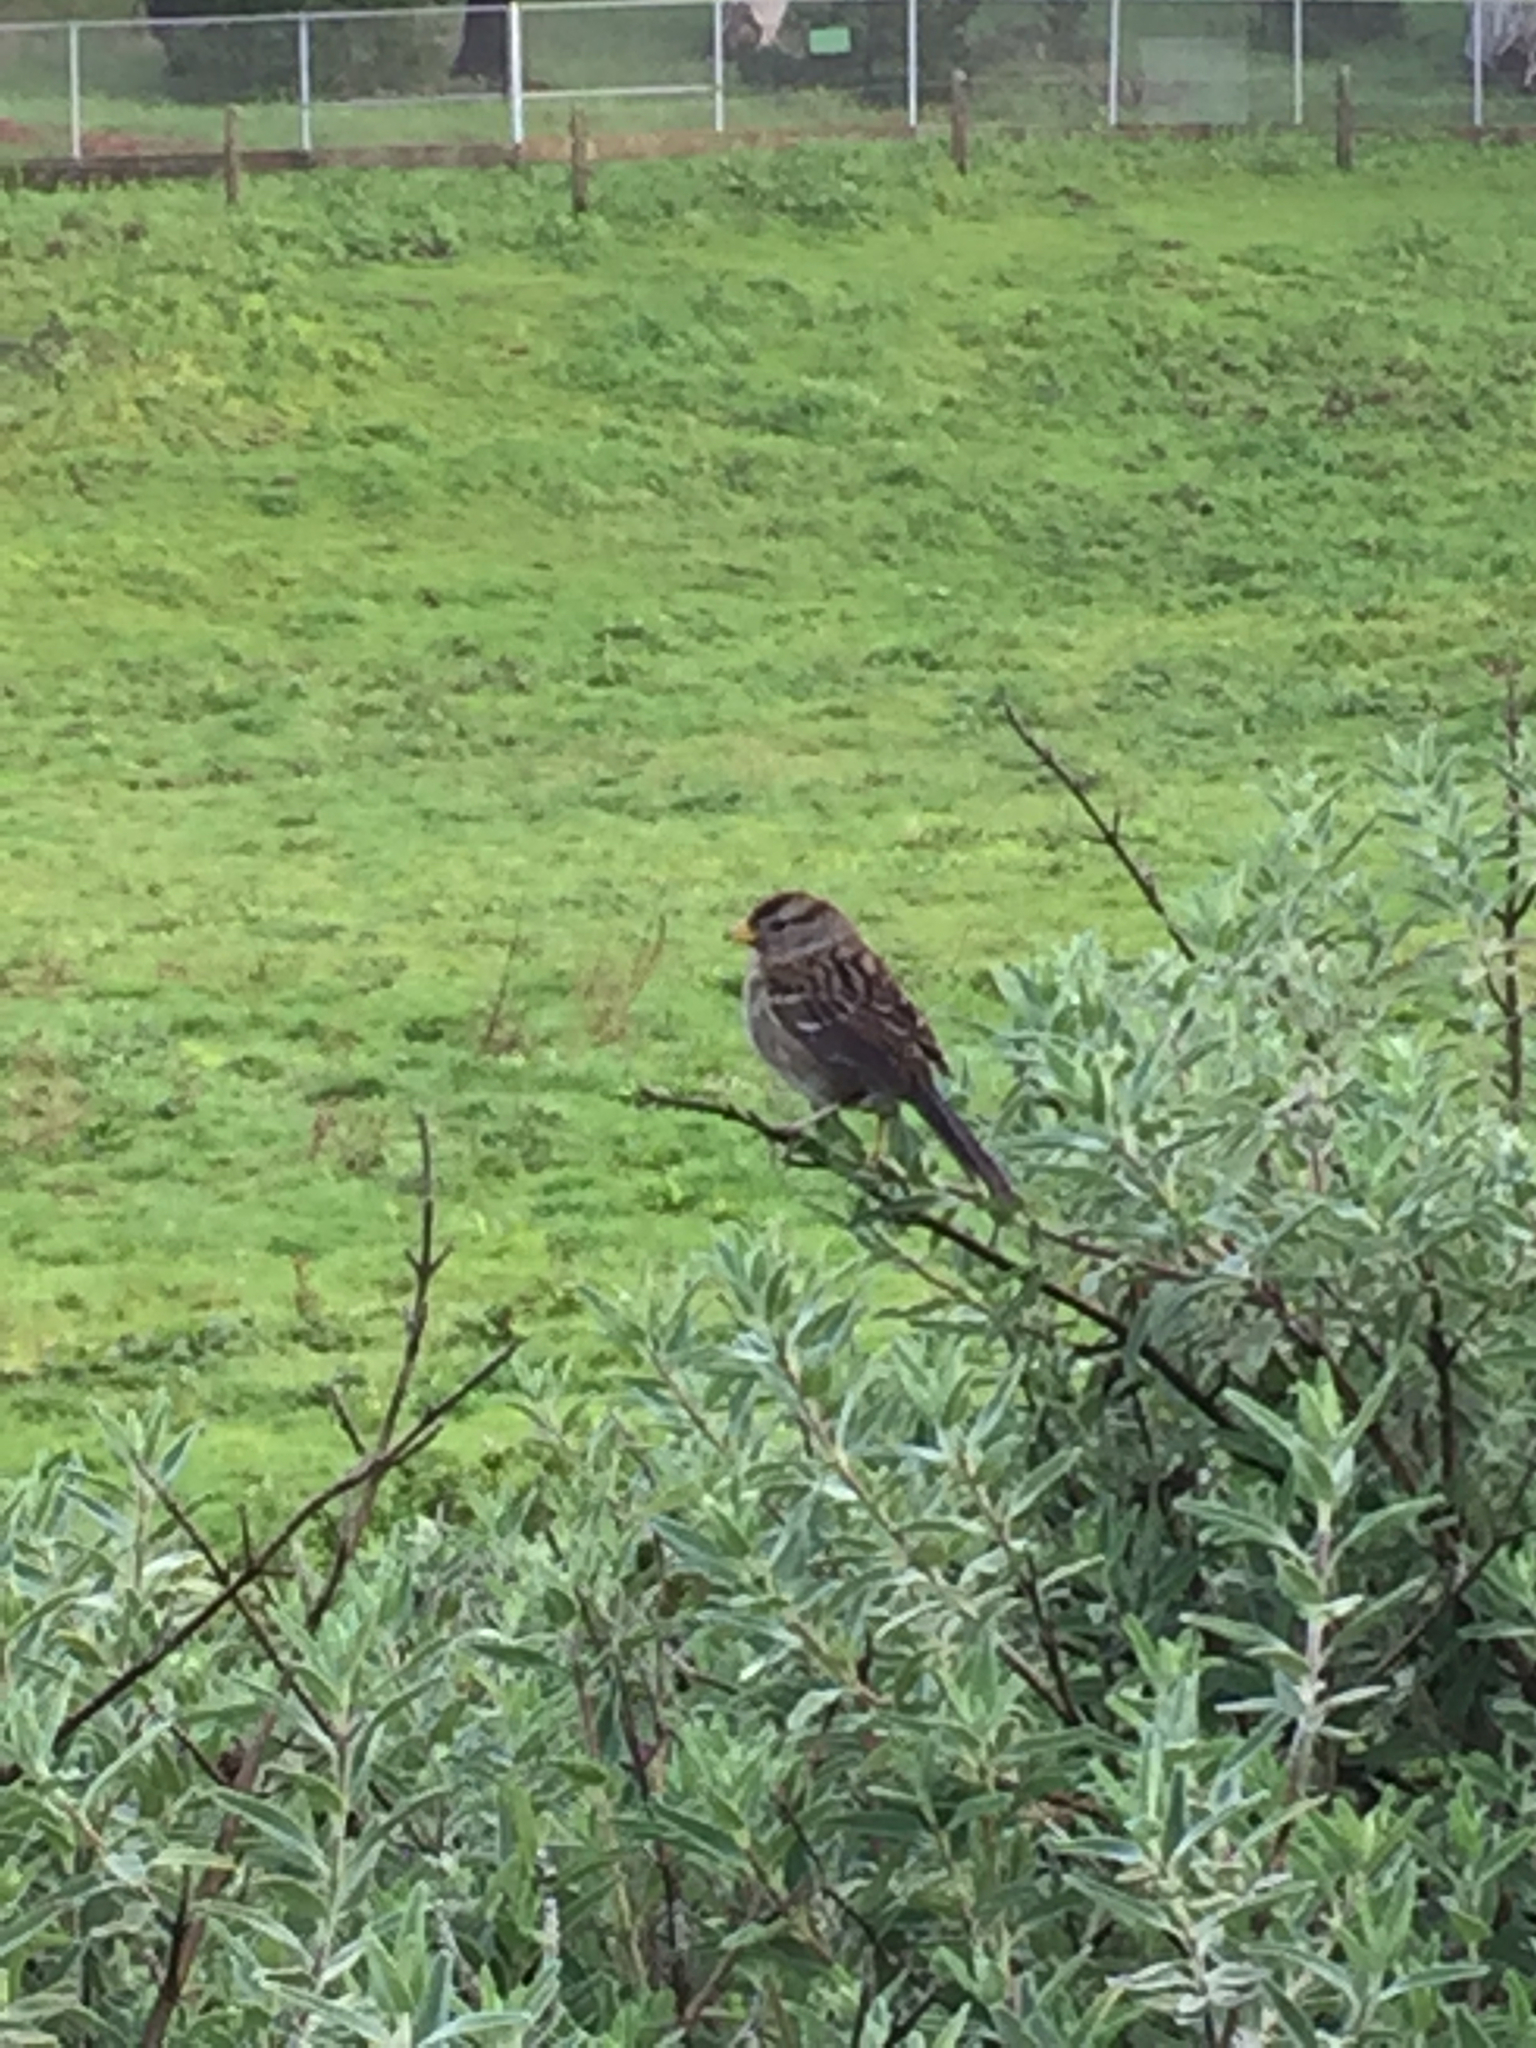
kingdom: Animalia
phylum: Chordata
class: Aves
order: Passeriformes
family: Passerellidae
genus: Zonotrichia
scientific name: Zonotrichia leucophrys
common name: White-crowned sparrow
